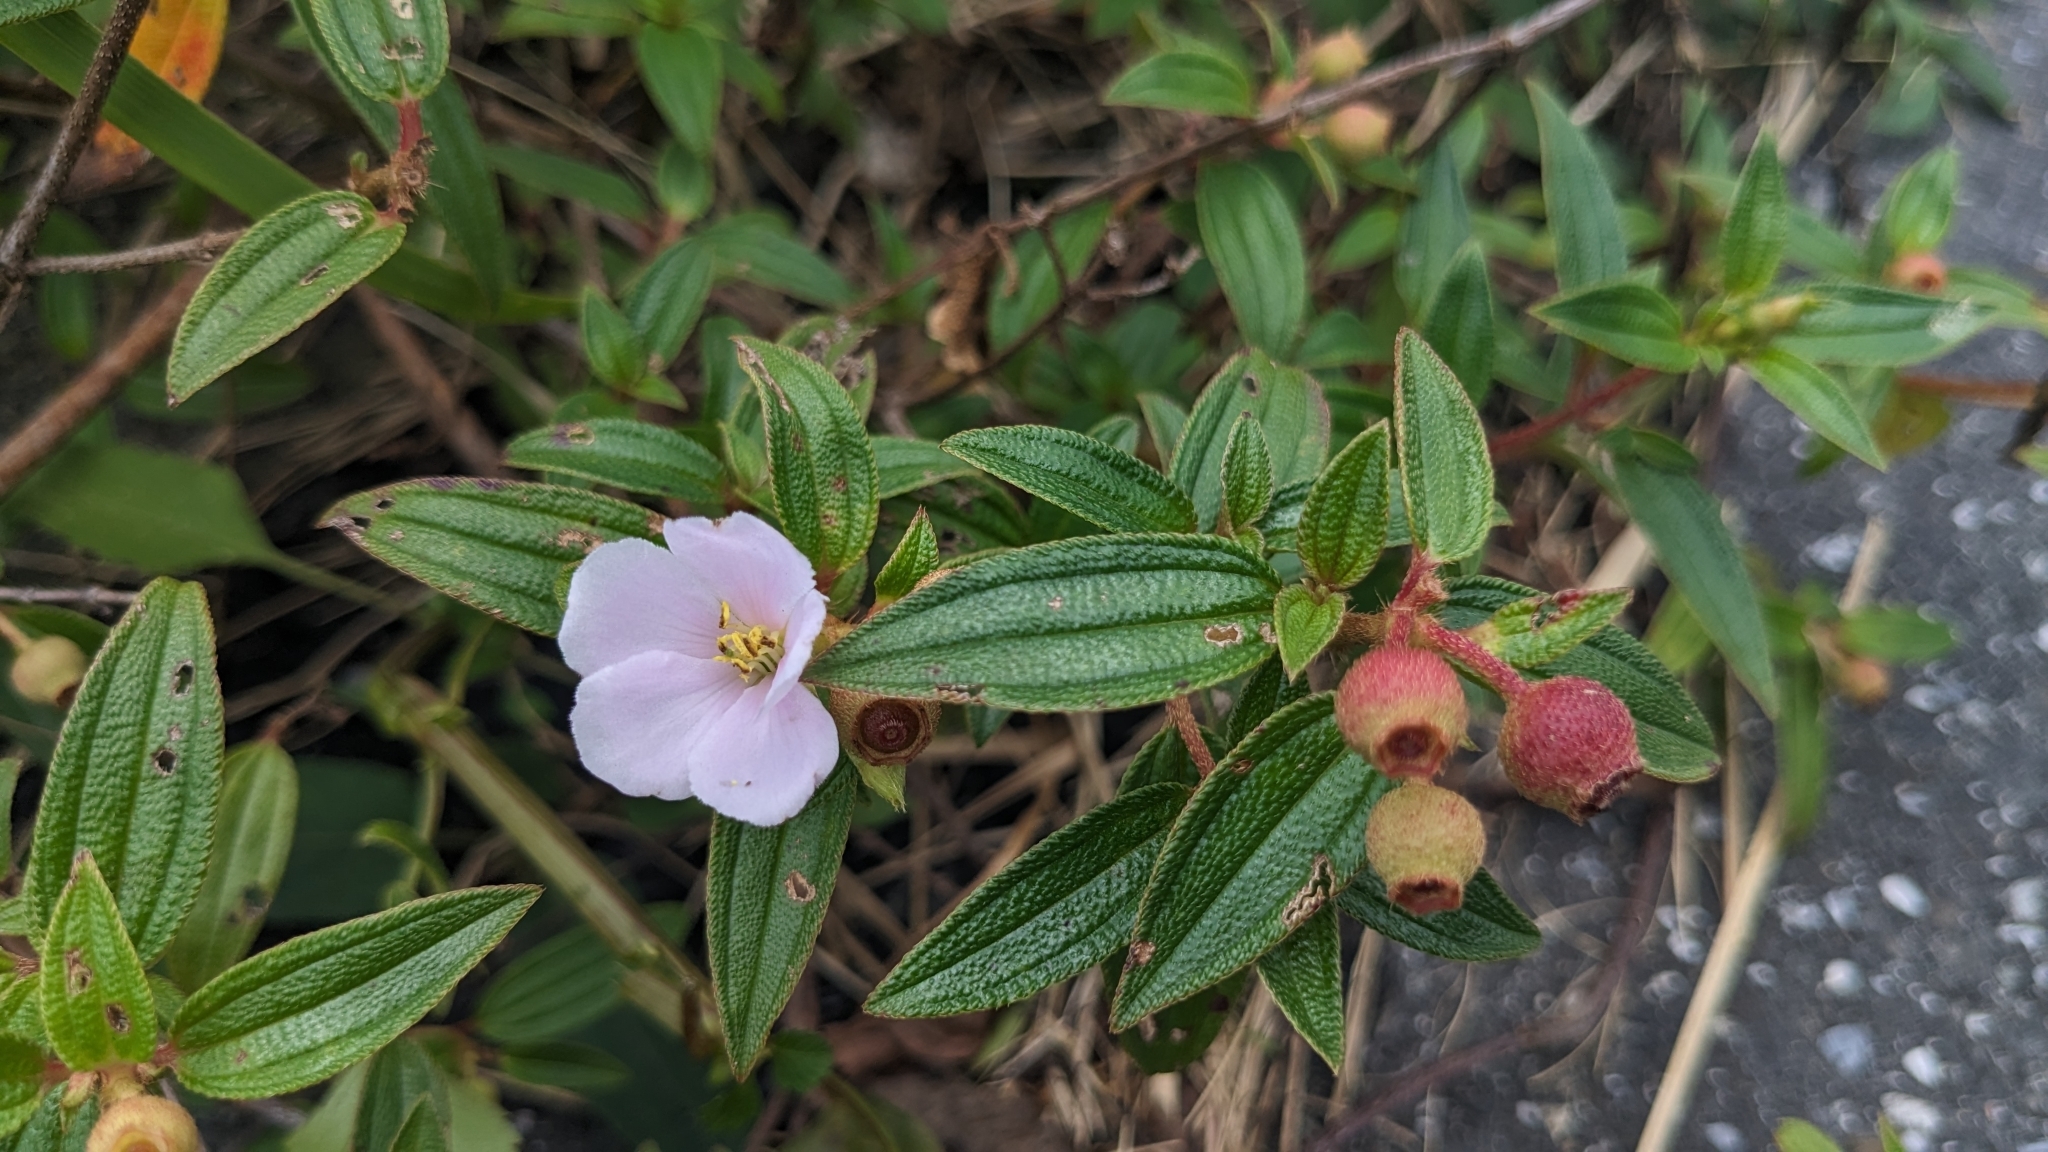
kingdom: Plantae
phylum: Tracheophyta
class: Magnoliopsida
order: Myrtales
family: Melastomataceae
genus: Melastoma
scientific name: Melastoma scaberrima
